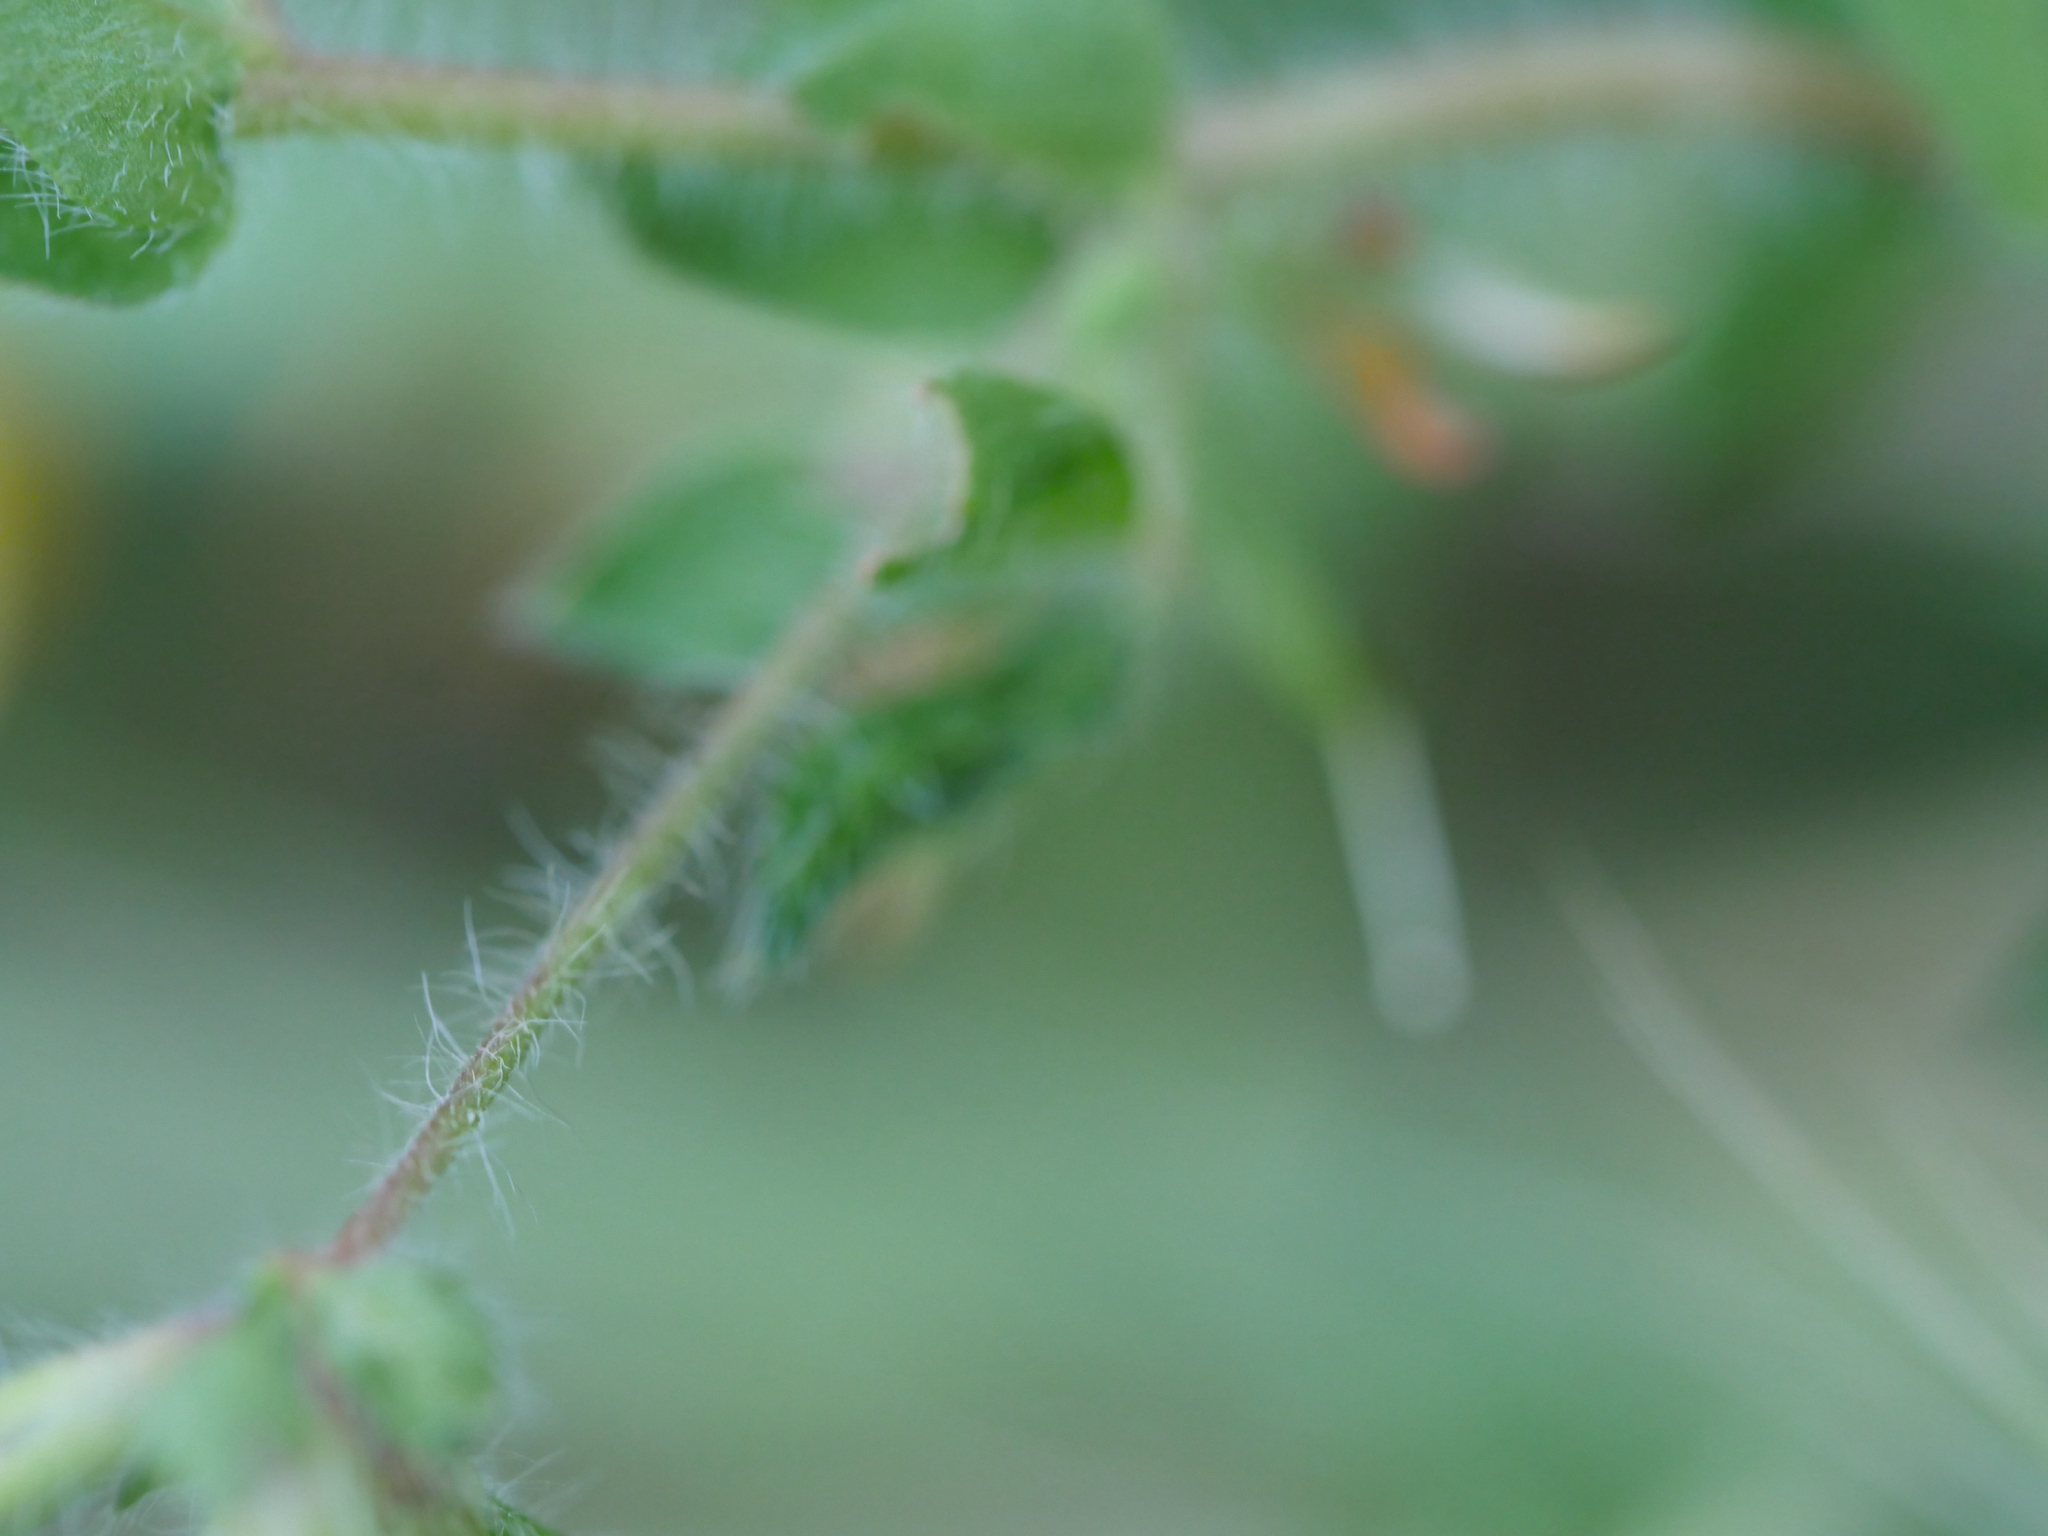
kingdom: Plantae
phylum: Tracheophyta
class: Magnoliopsida
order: Fabales
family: Fabaceae
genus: Lotus
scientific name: Lotus subbiflorus
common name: Hairy bird's-foot trefoil
